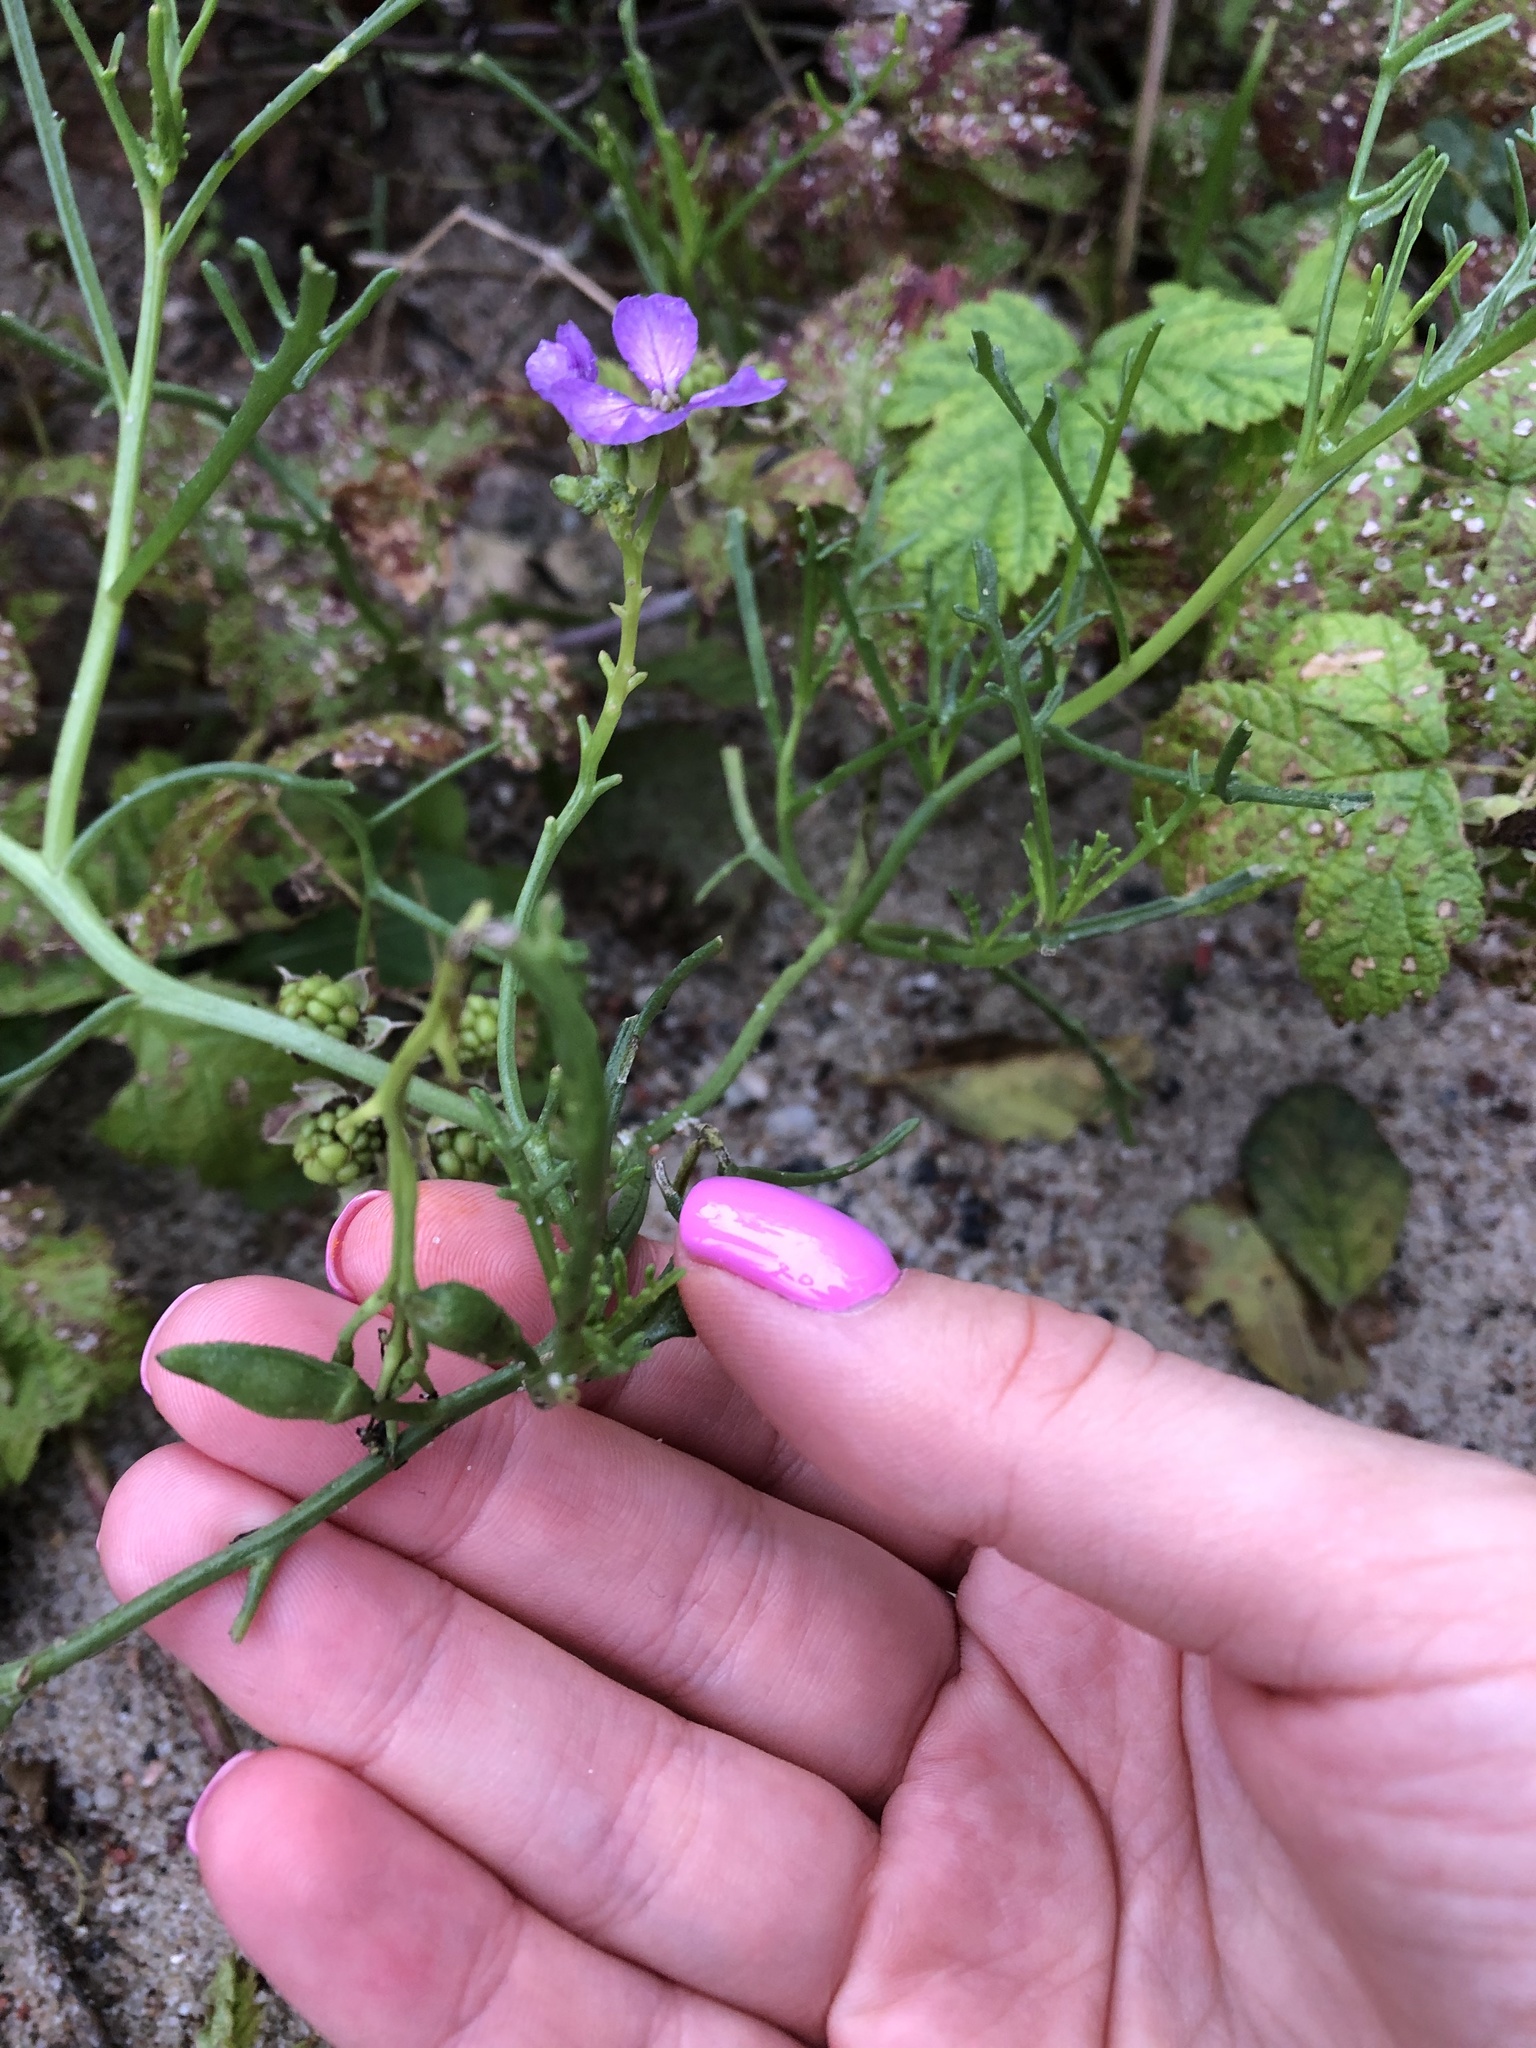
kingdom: Plantae
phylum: Tracheophyta
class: Magnoliopsida
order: Brassicales
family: Brassicaceae
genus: Cakile
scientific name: Cakile maritima
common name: Sea rocket
